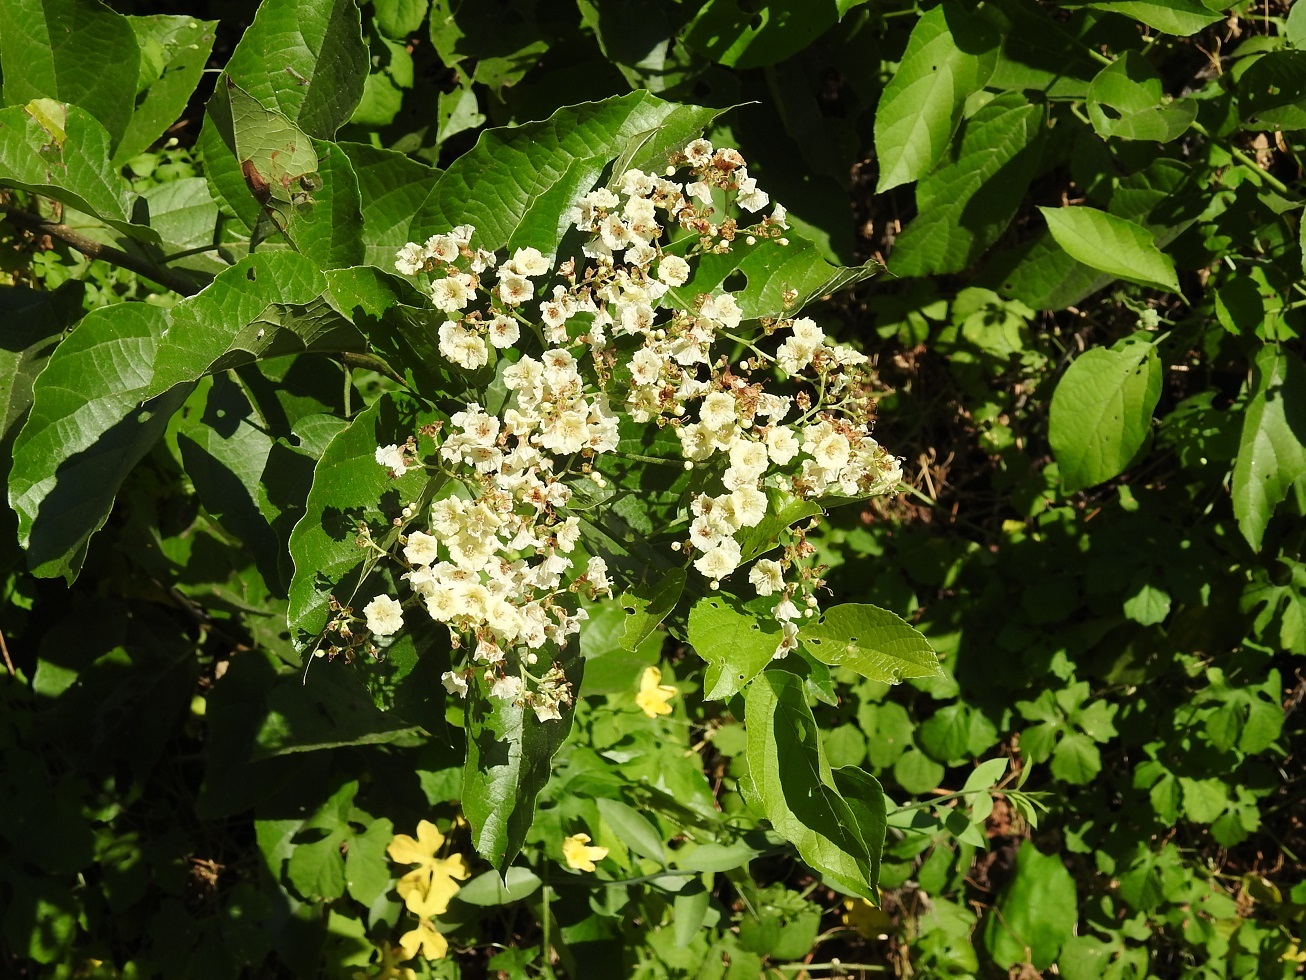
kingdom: Plantae
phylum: Tracheophyta
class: Magnoliopsida
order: Boraginales
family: Cordiaceae
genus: Cordia
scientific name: Cordia dentata
